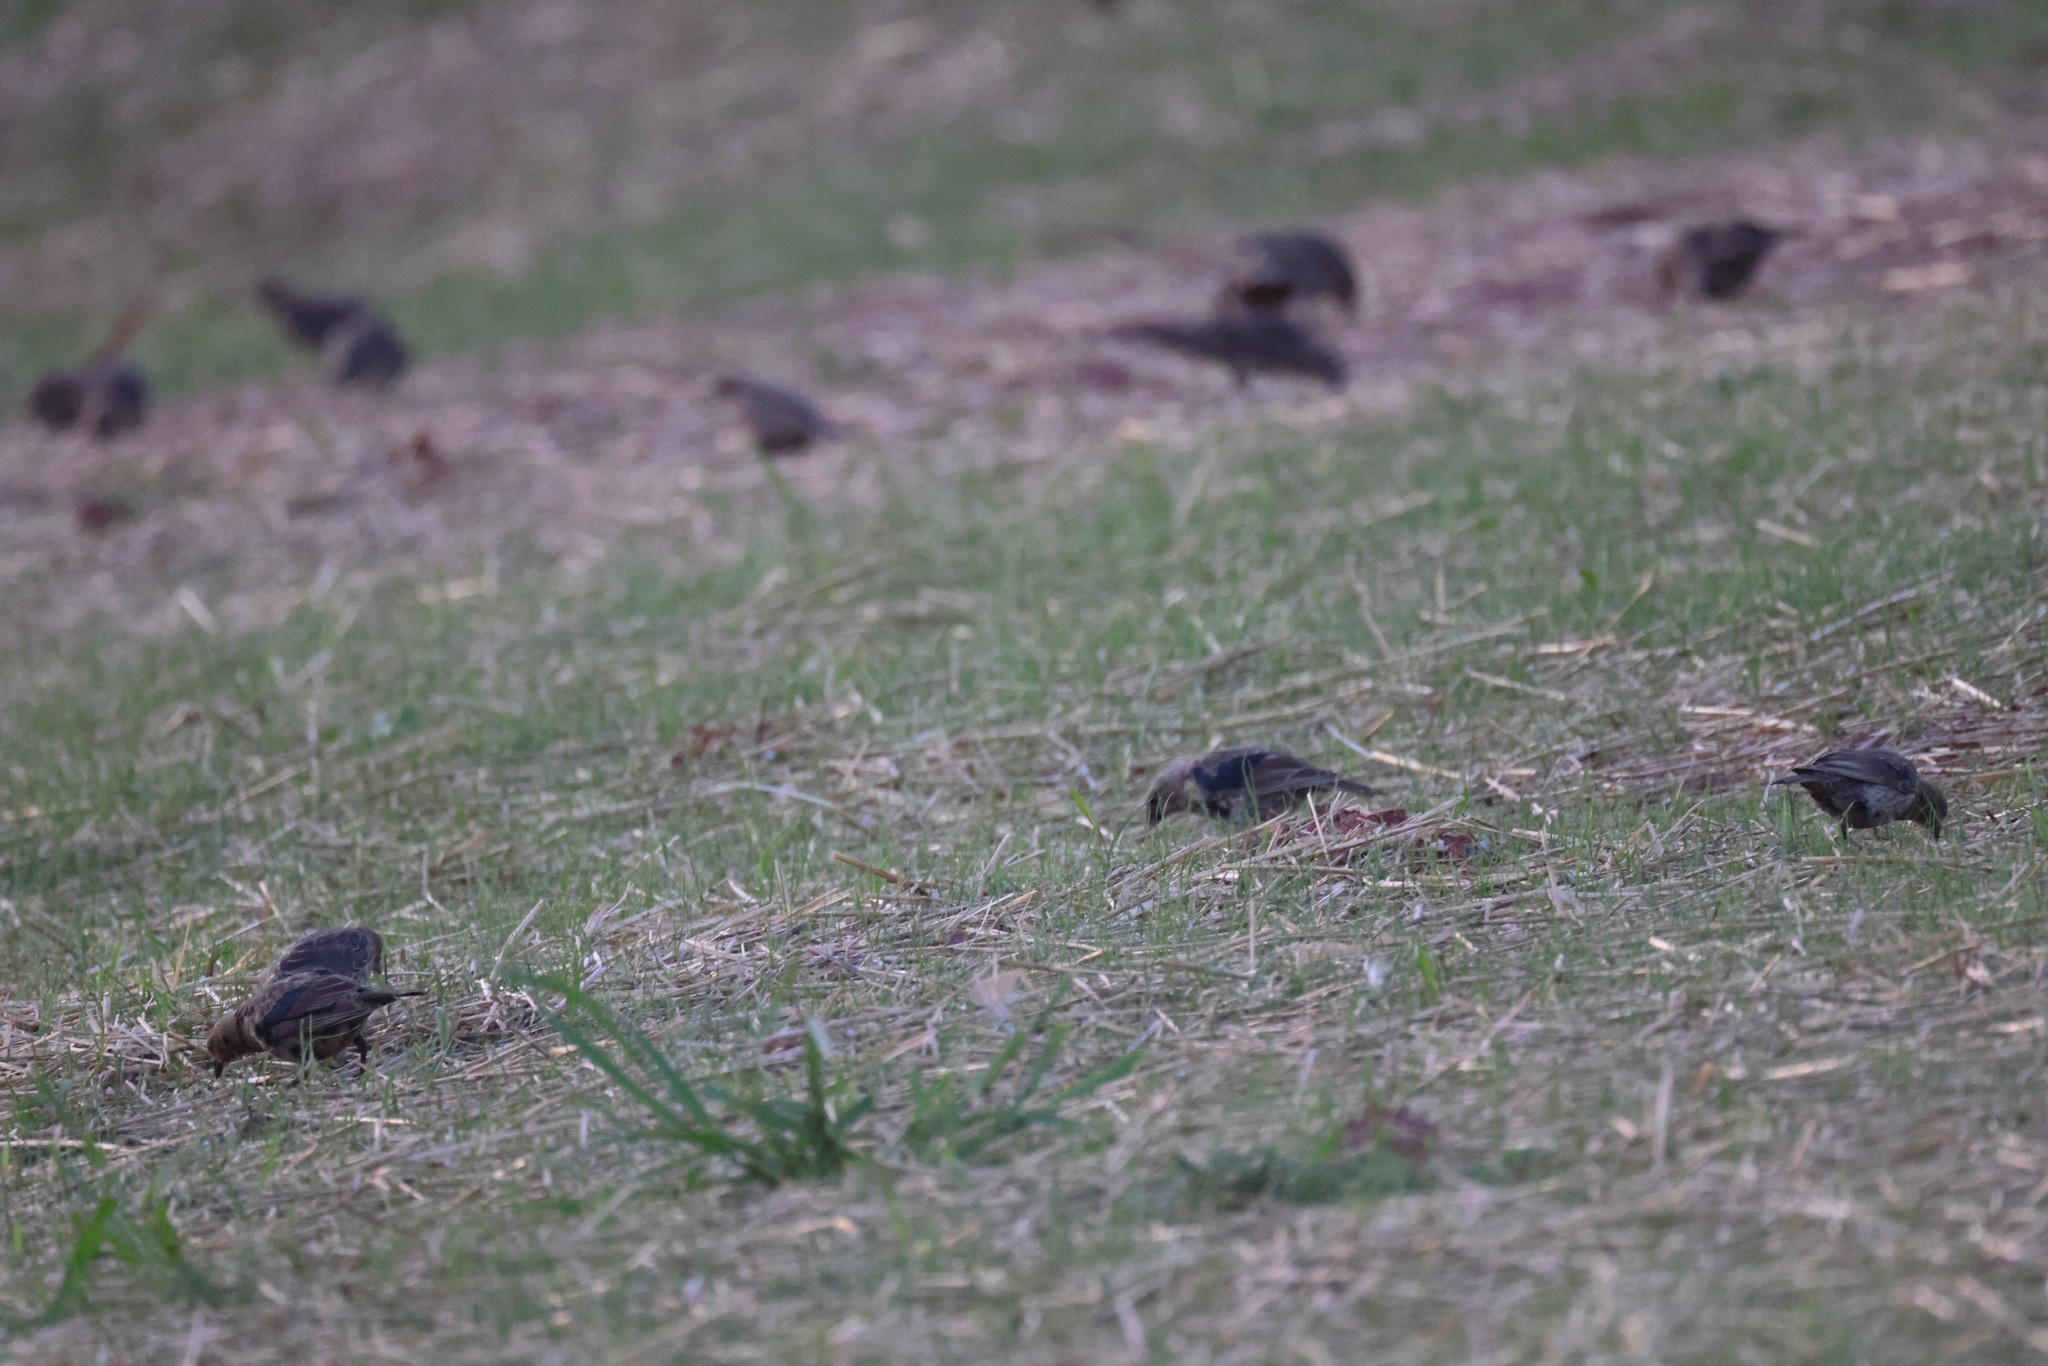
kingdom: Animalia
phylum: Chordata
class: Aves
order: Passeriformes
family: Icteridae
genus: Molothrus
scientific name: Molothrus ater
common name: Brown-headed cowbird
